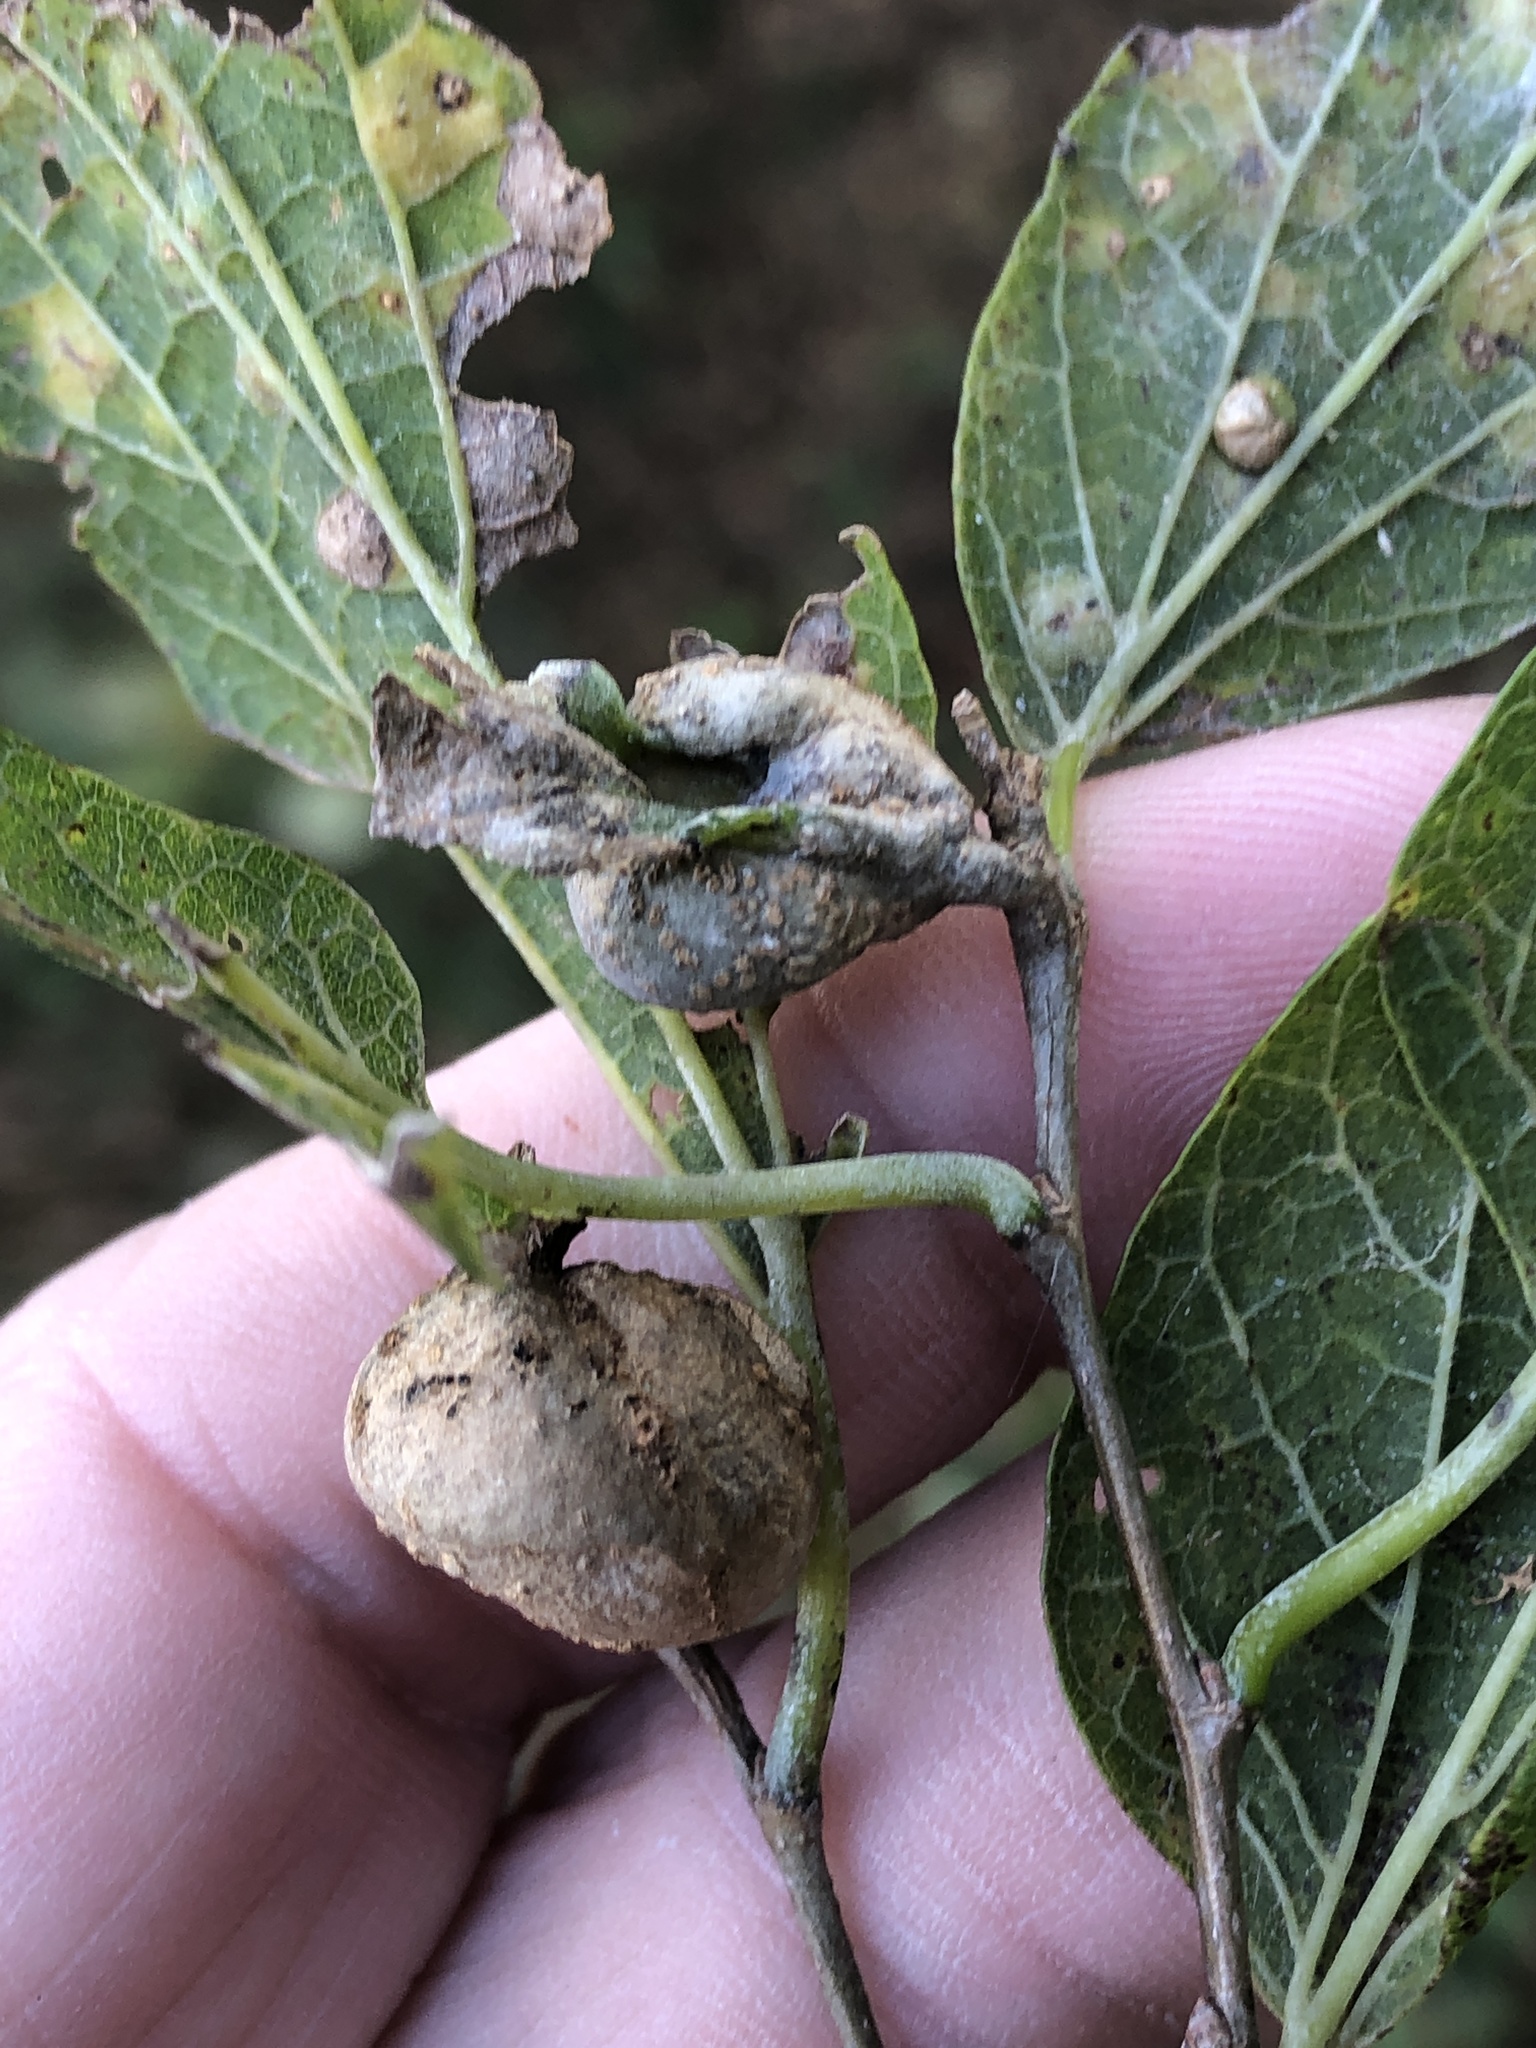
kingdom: Animalia
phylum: Arthropoda
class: Insecta
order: Hemiptera
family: Aphalaridae
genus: Pachypsylla
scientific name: Pachypsylla venusta
